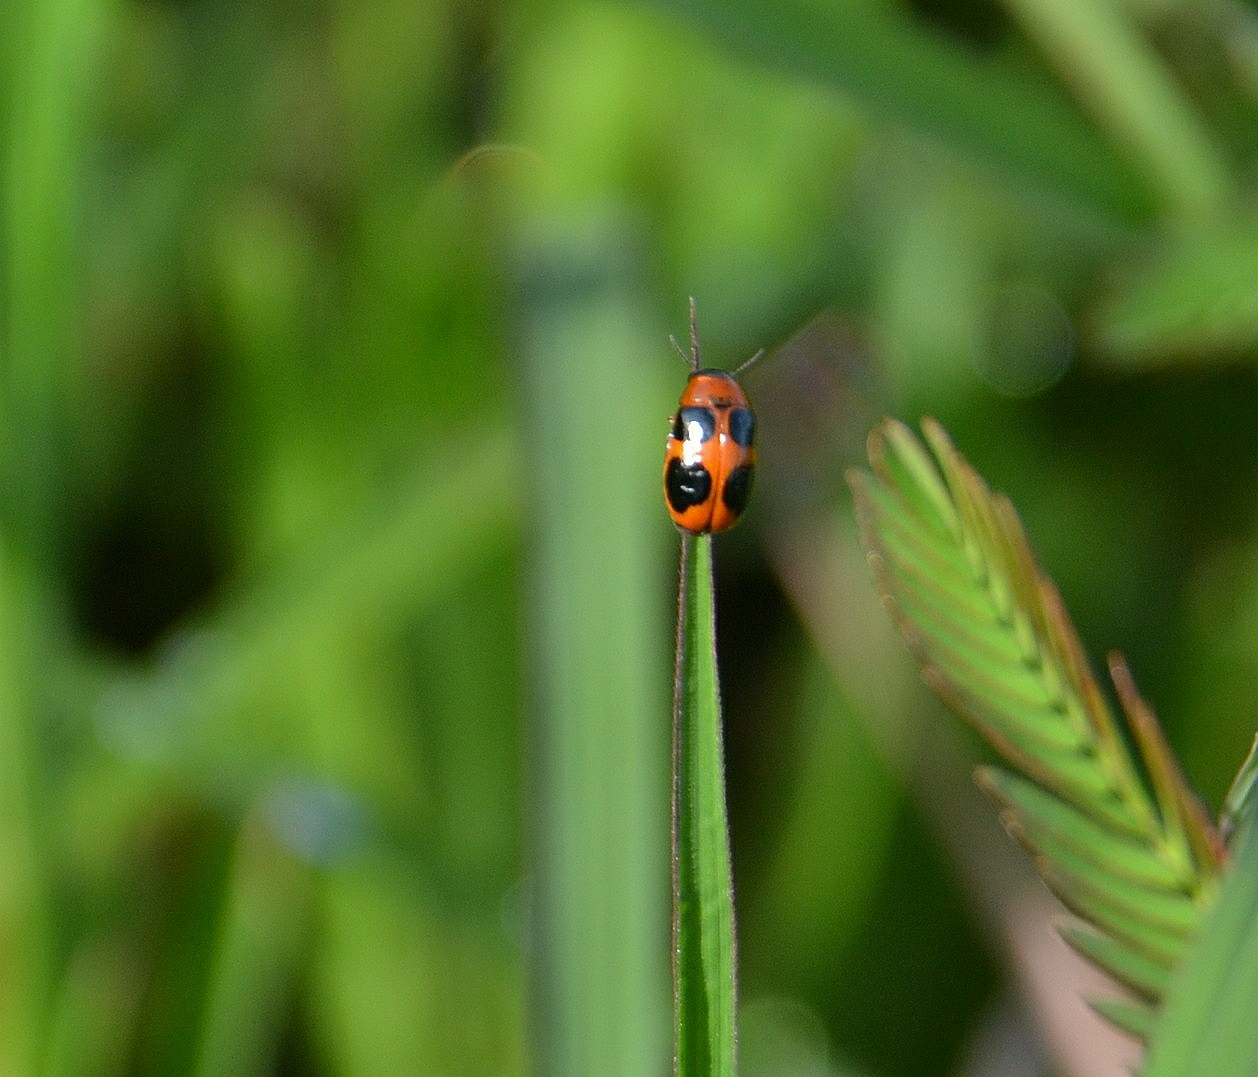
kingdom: Animalia
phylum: Arthropoda
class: Insecta
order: Coleoptera
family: Chrysomelidae
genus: Coptocephala
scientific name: Coptocephala
